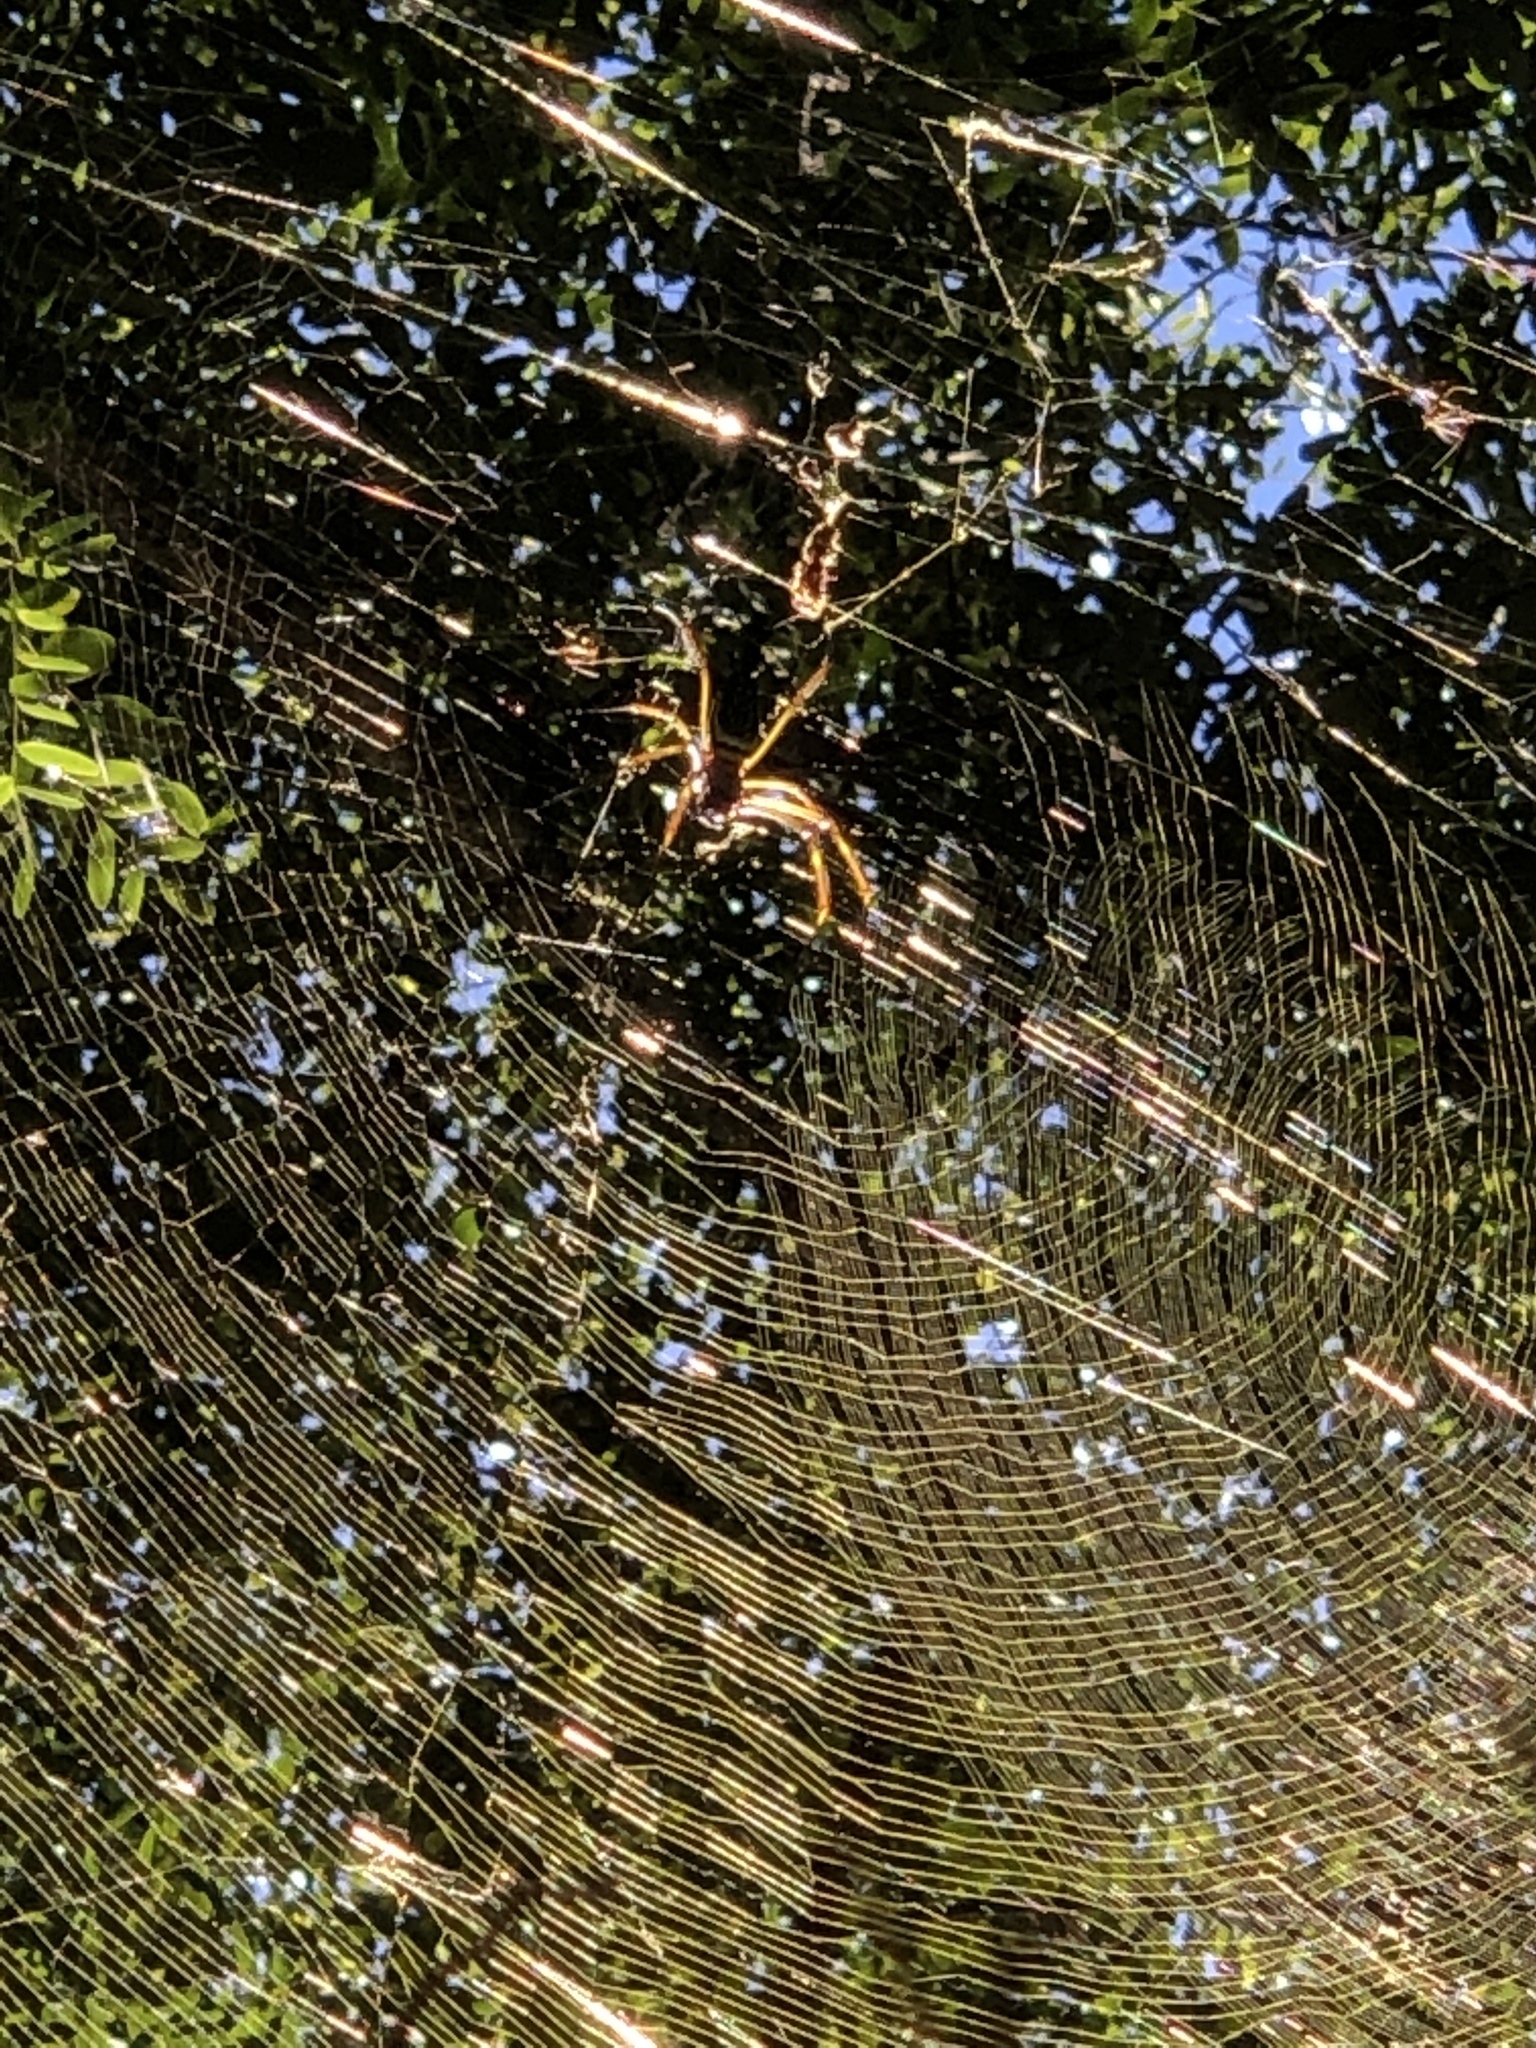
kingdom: Animalia
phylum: Arthropoda
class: Arachnida
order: Araneae
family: Araneidae
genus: Trichonephila
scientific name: Trichonephila clavipes
